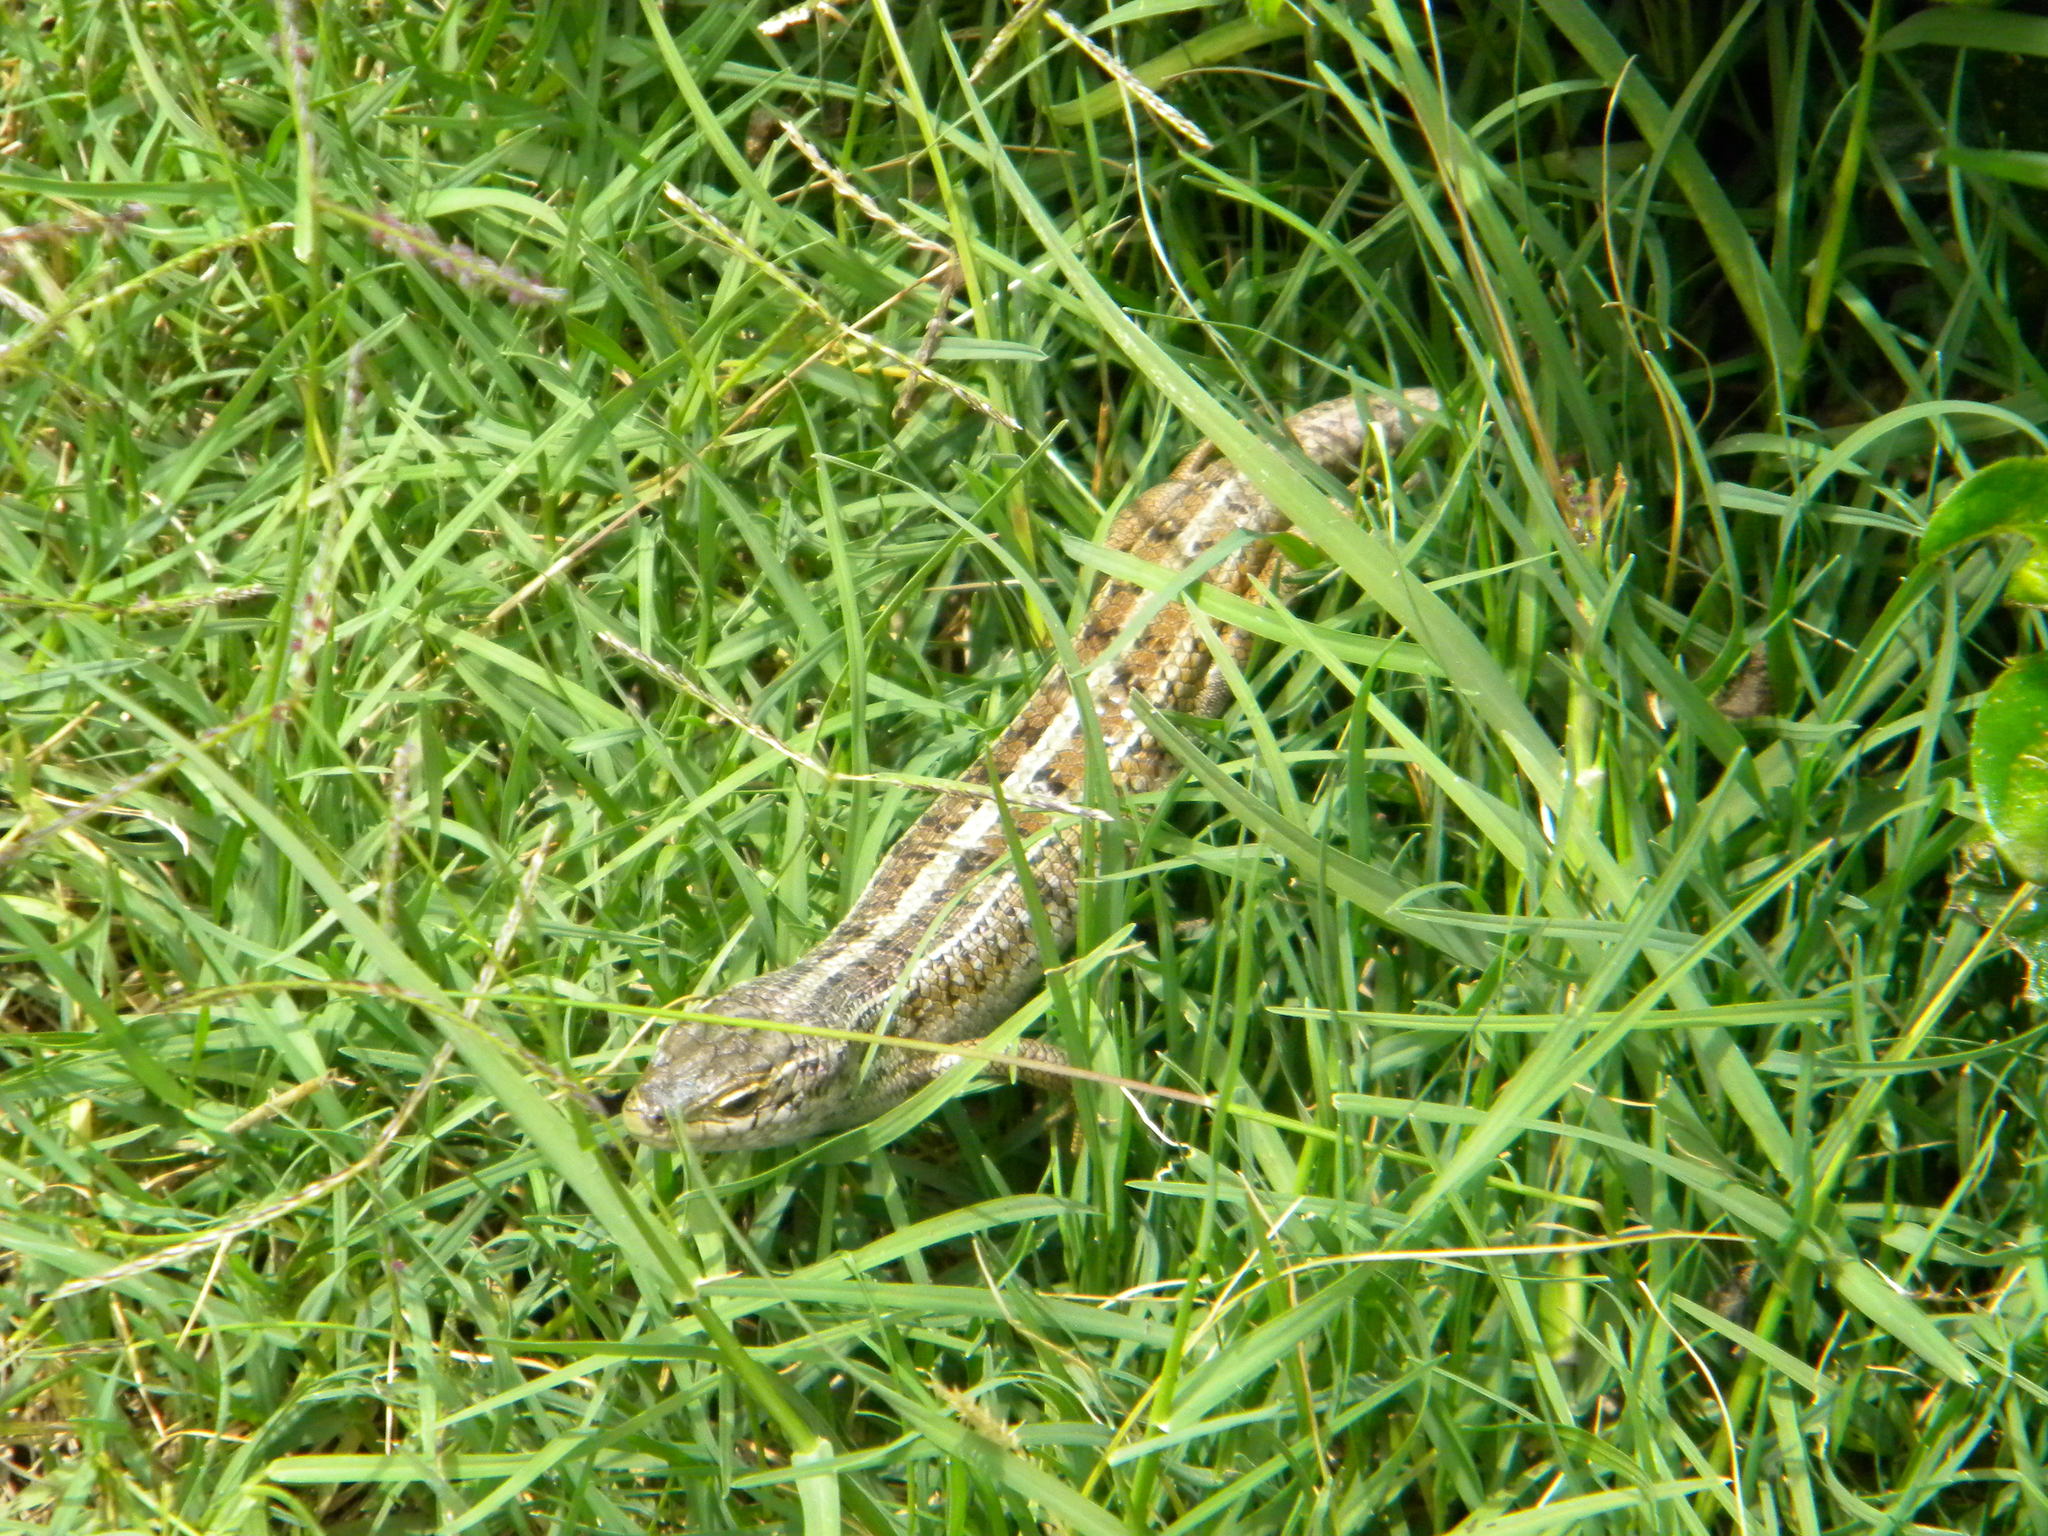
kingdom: Animalia
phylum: Chordata
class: Squamata
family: Scincidae
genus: Trachylepis
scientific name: Trachylepis capensis
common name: Cape skink
